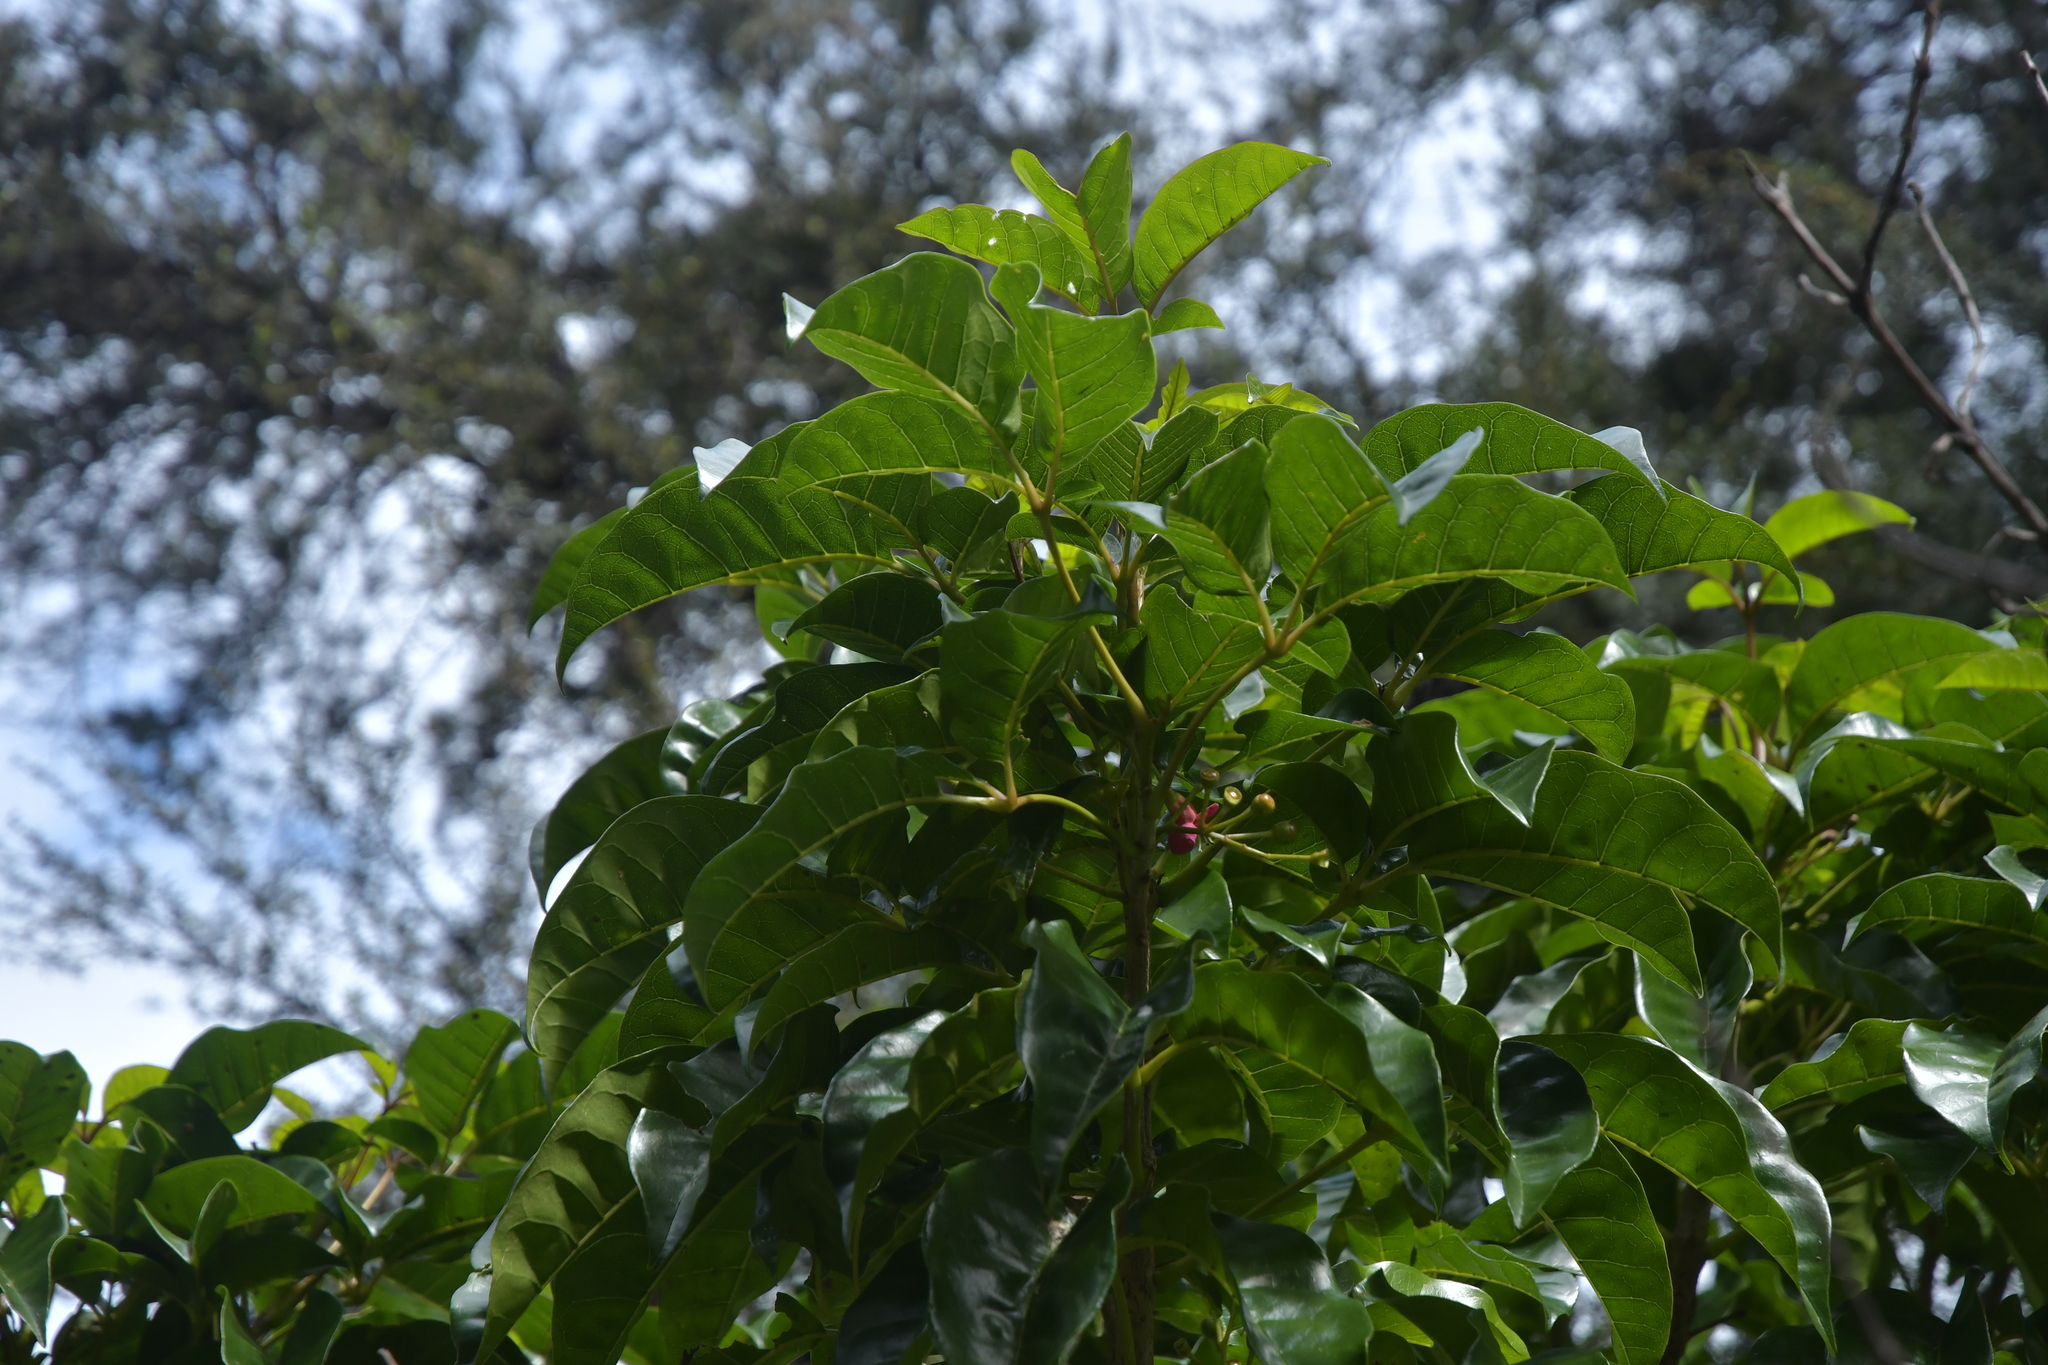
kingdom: Plantae
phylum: Tracheophyta
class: Magnoliopsida
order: Lamiales
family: Lamiaceae
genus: Vitex
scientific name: Vitex lucens
